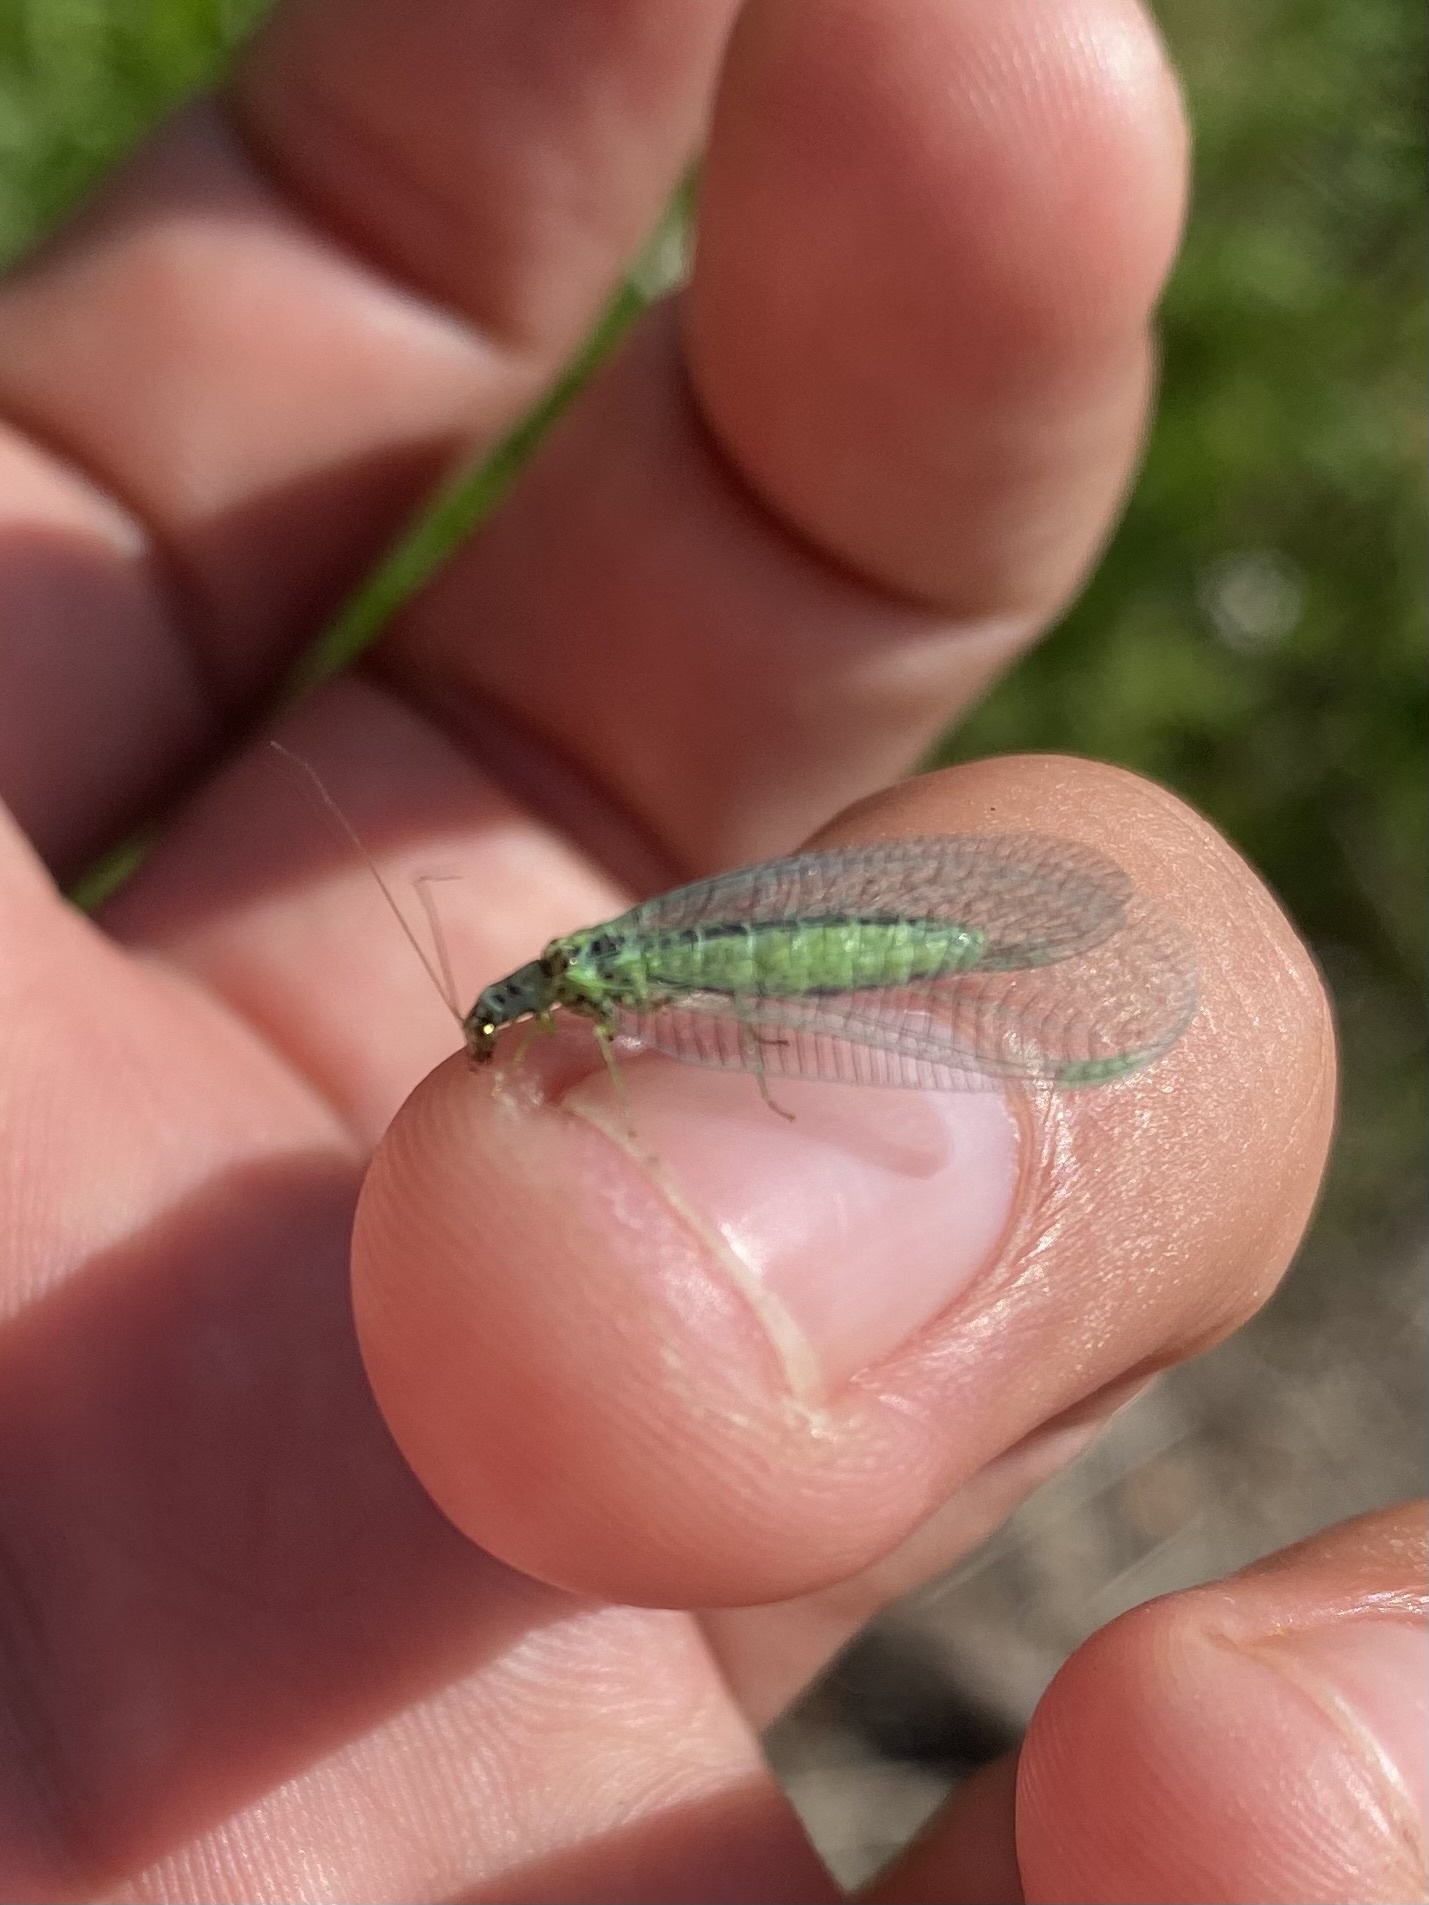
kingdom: Animalia
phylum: Arthropoda
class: Insecta
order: Neuroptera
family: Chrysopidae
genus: Chrysopa
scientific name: Chrysopa perla
